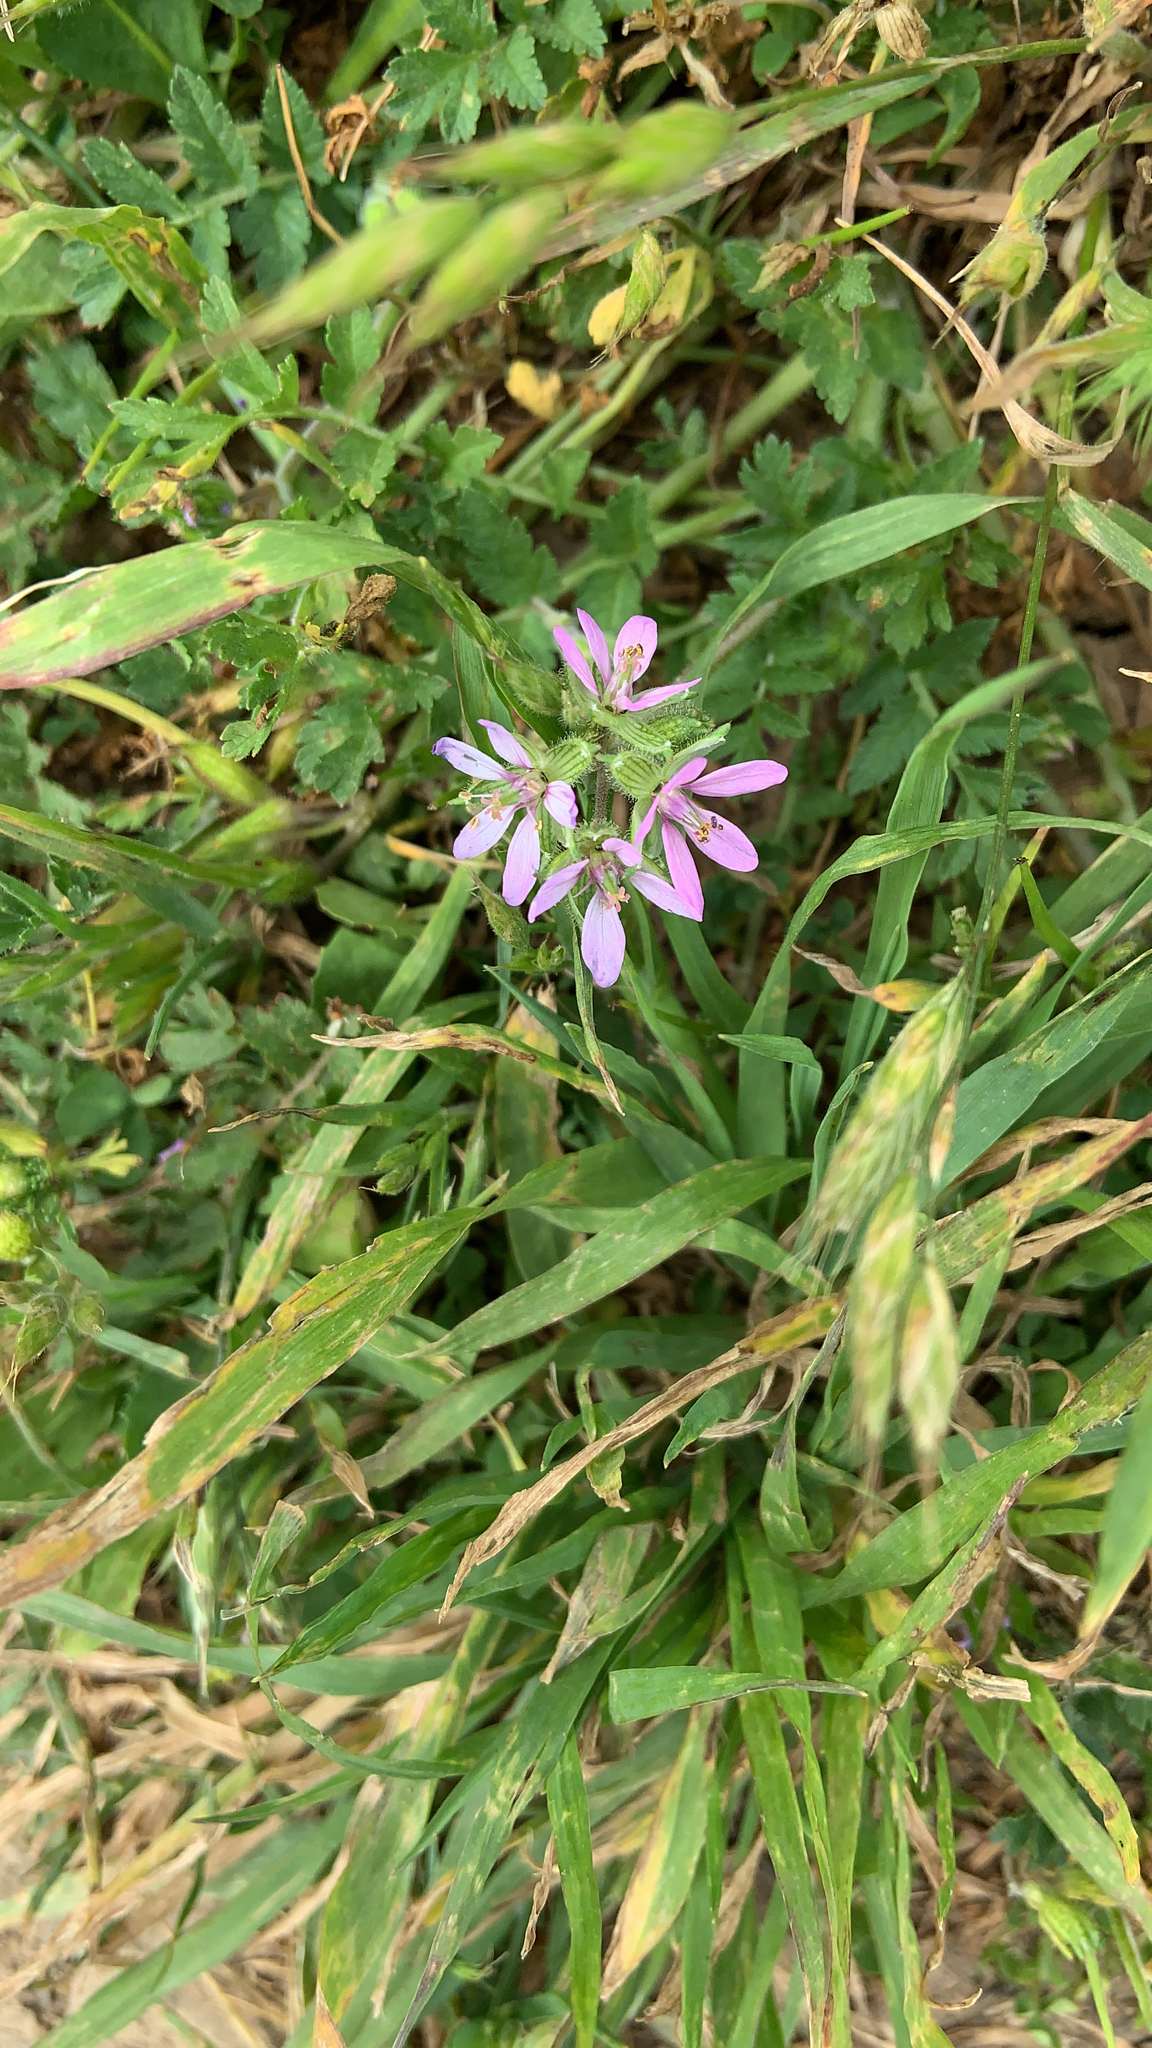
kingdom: Plantae
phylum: Tracheophyta
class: Magnoliopsida
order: Geraniales
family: Geraniaceae
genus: Erodium
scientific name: Erodium moschatum
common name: Musk stork's-bill
